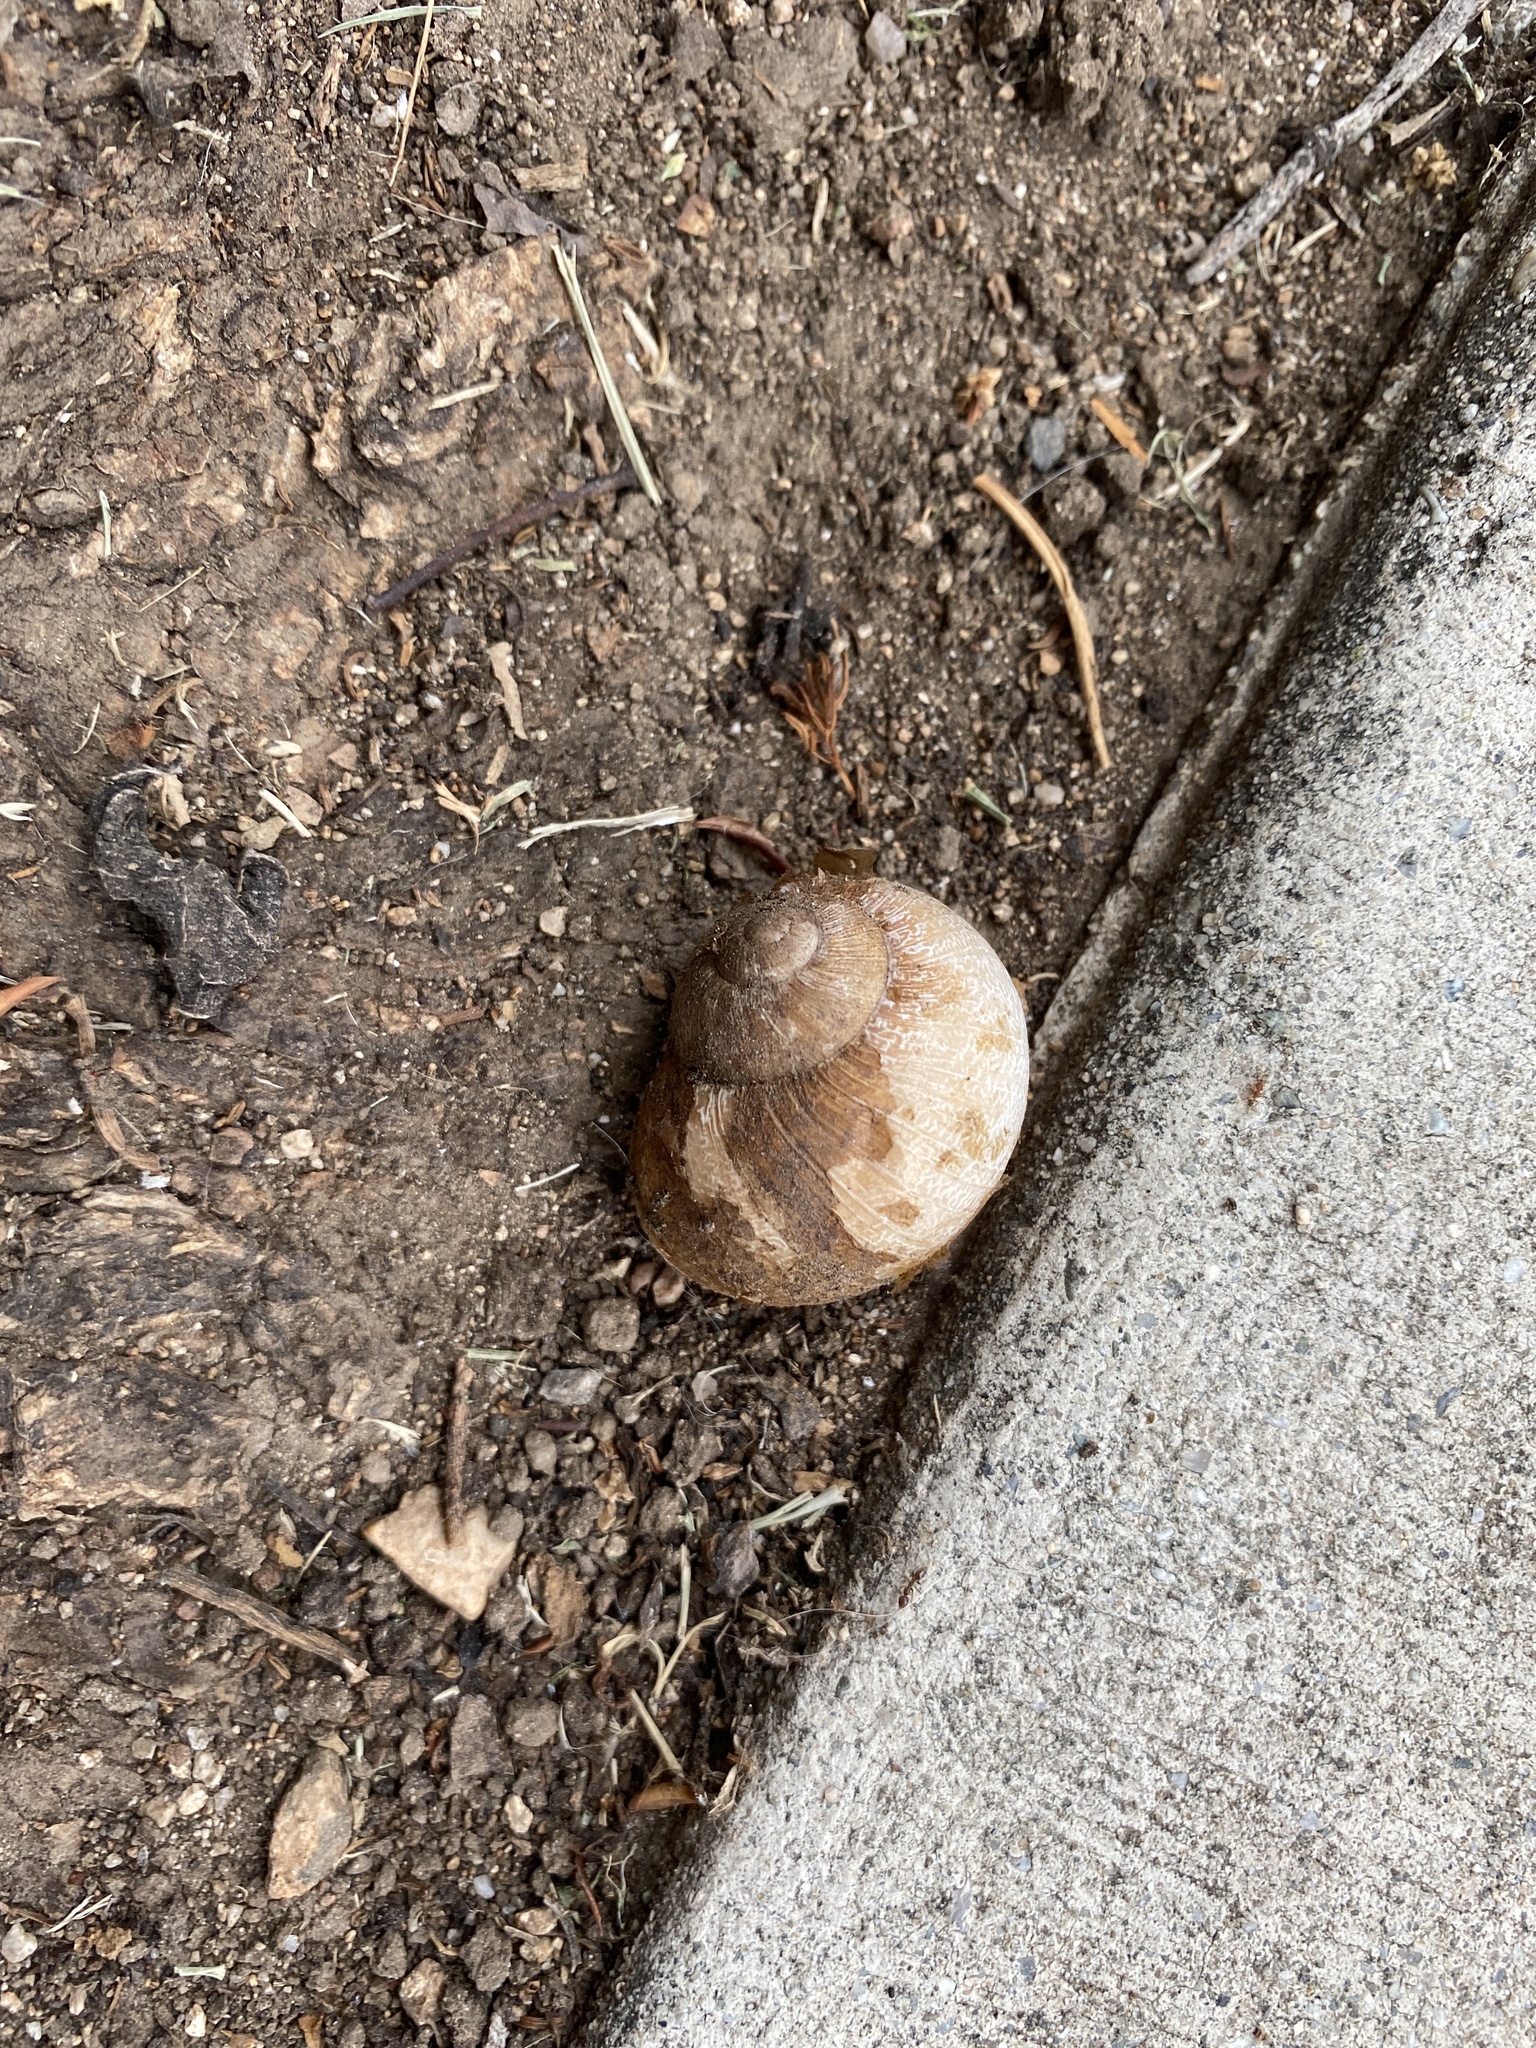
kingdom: Animalia
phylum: Mollusca
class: Gastropoda
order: Stylommatophora
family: Helicidae
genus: Cornu
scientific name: Cornu aspersum
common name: Brown garden snail
